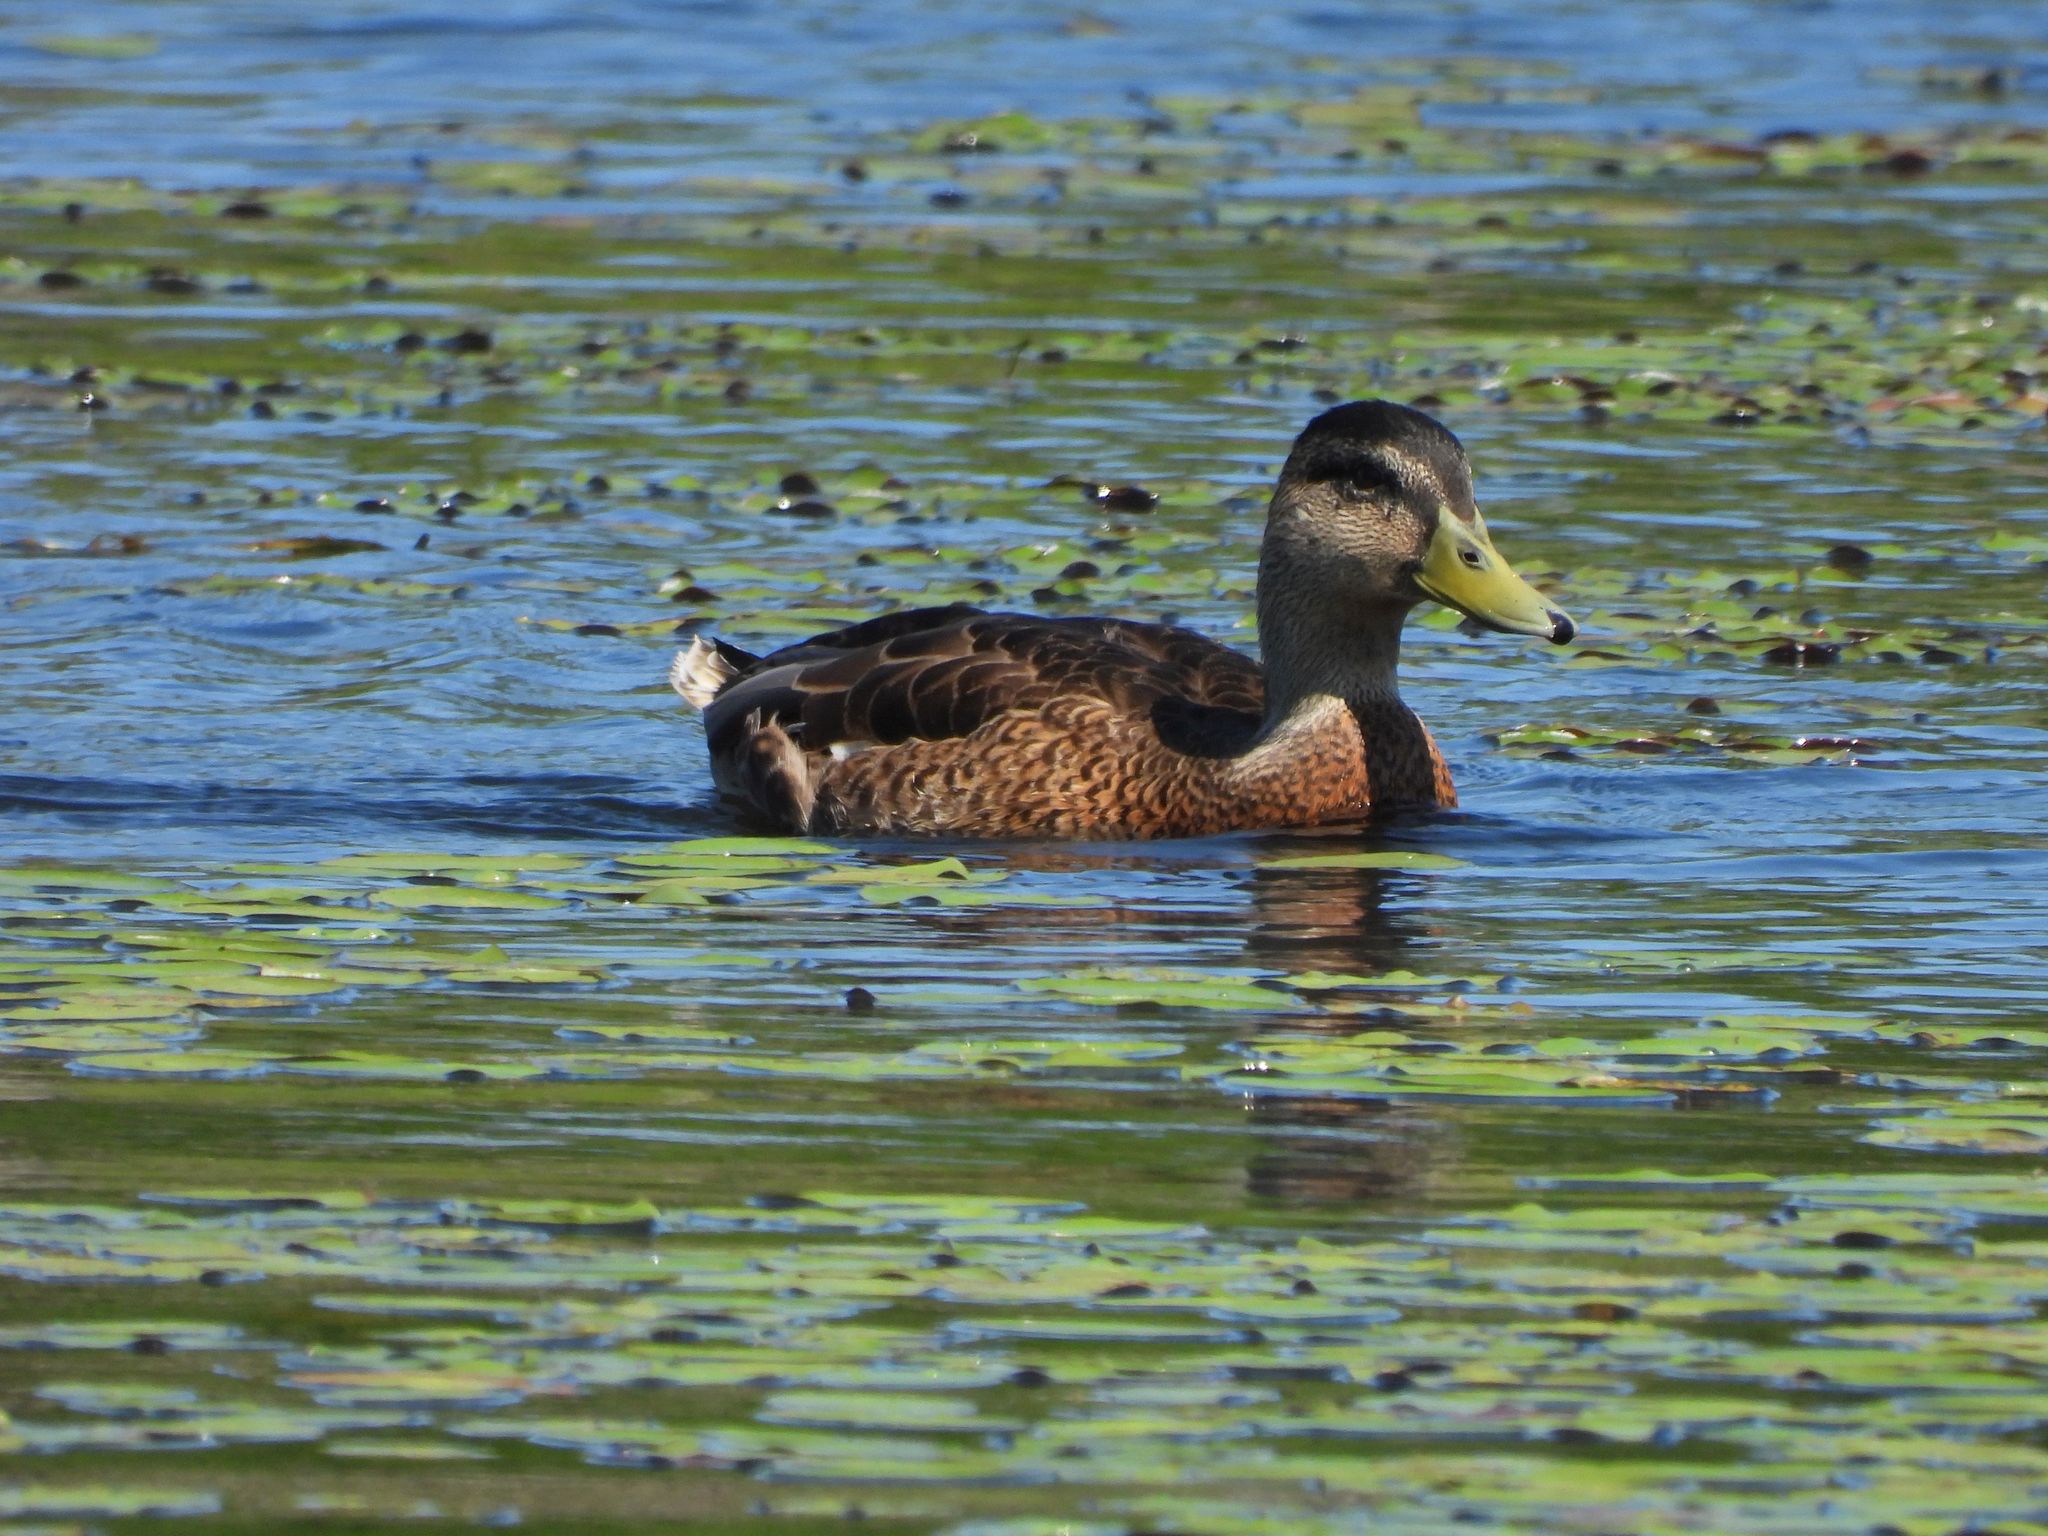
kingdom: Animalia
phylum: Chordata
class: Aves
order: Anseriformes
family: Anatidae
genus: Anas
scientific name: Anas platyrhynchos
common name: Mallard
